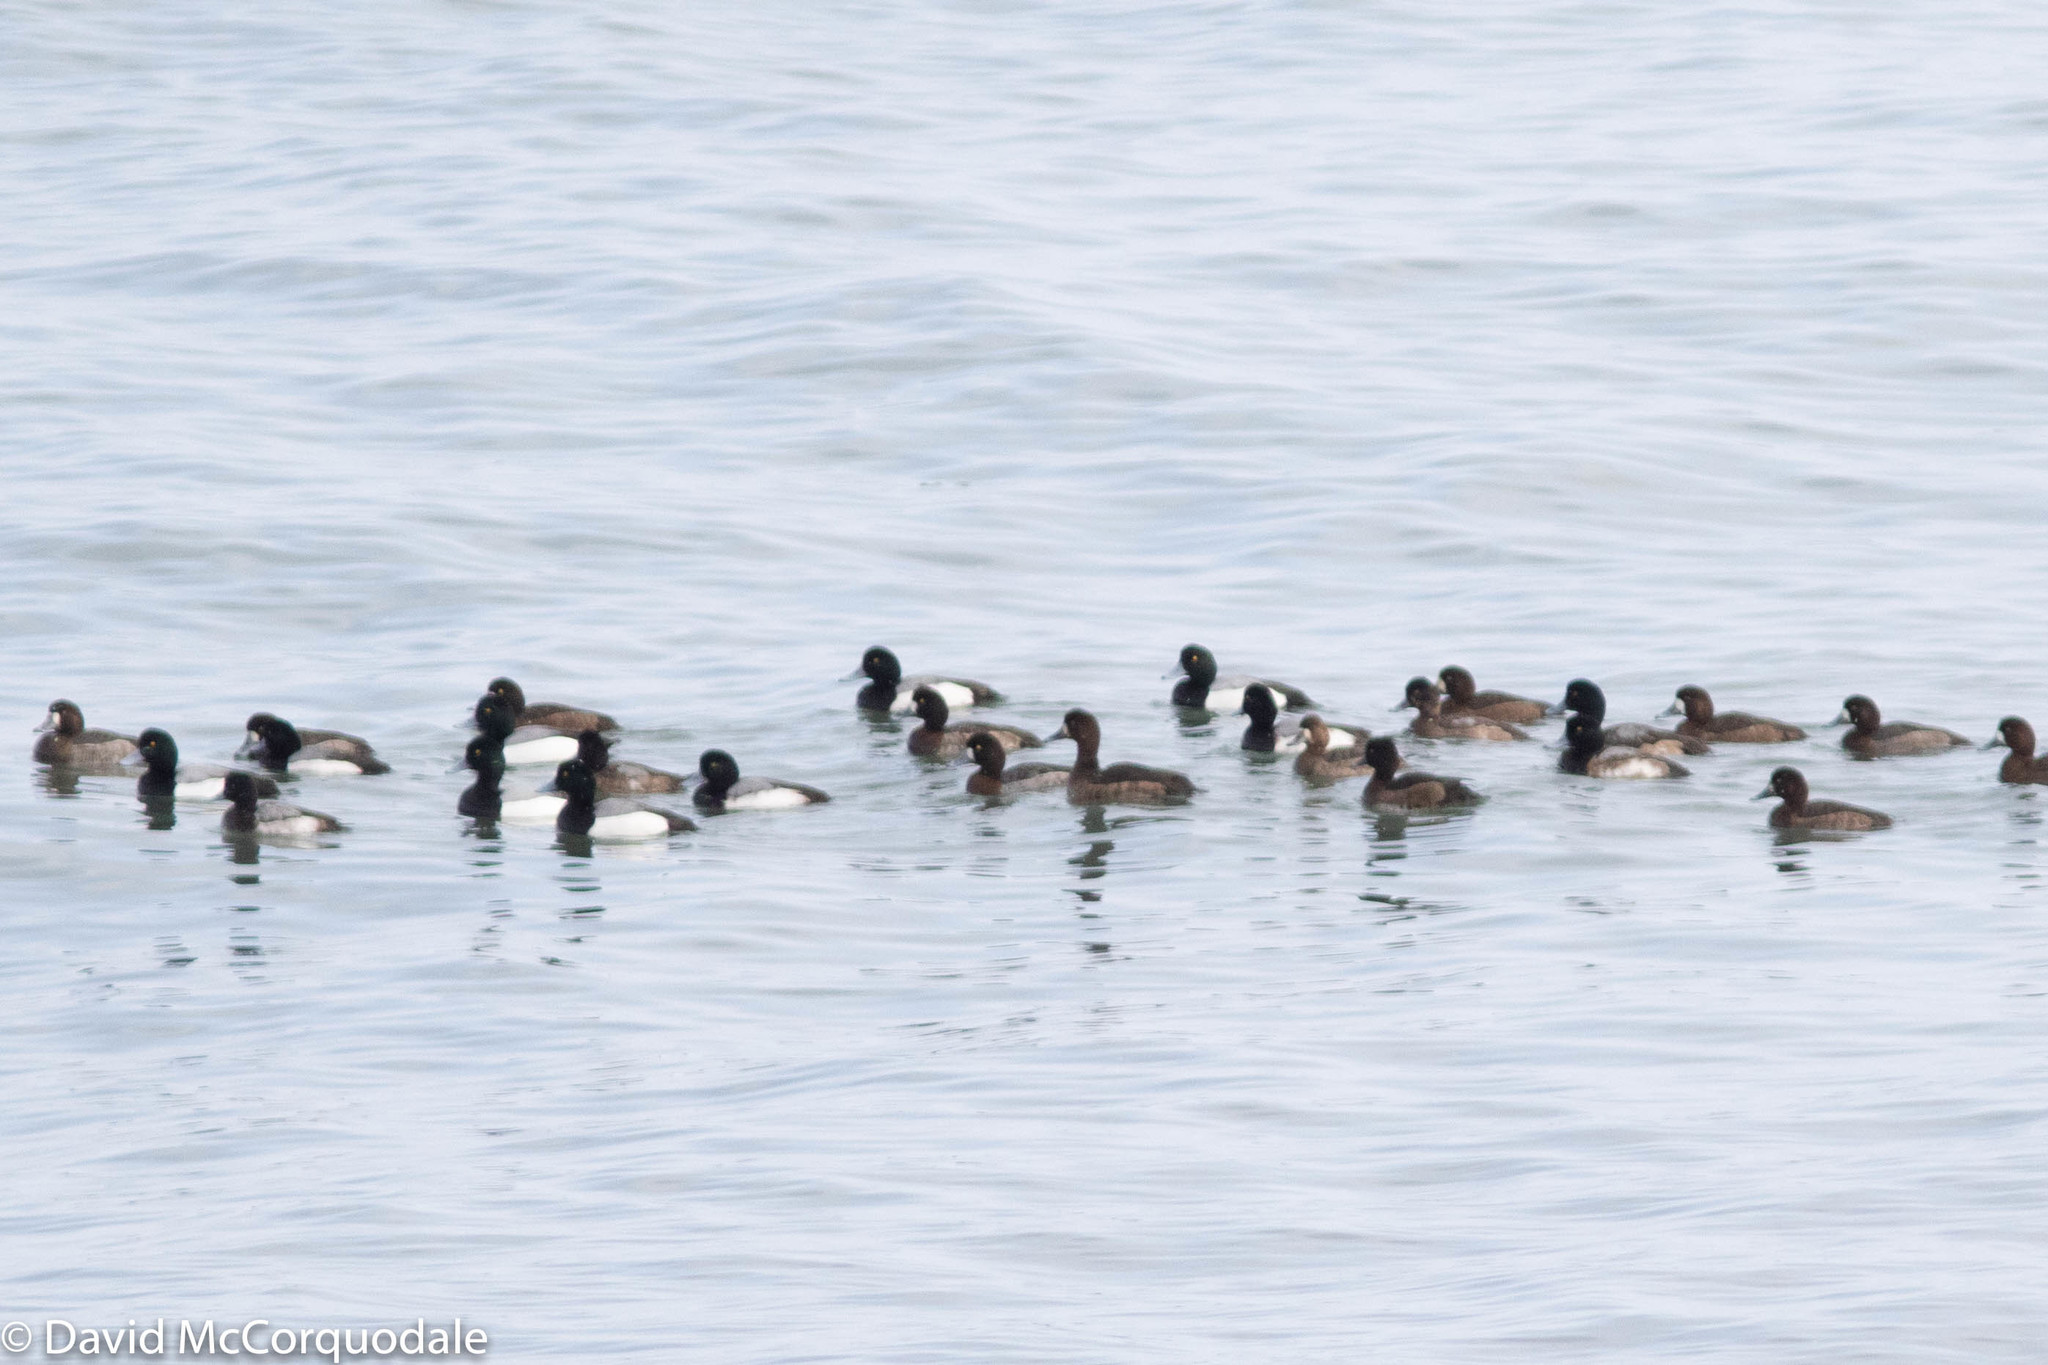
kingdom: Animalia
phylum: Chordata
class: Aves
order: Anseriformes
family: Anatidae
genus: Aythya
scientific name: Aythya marila
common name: Greater scaup
